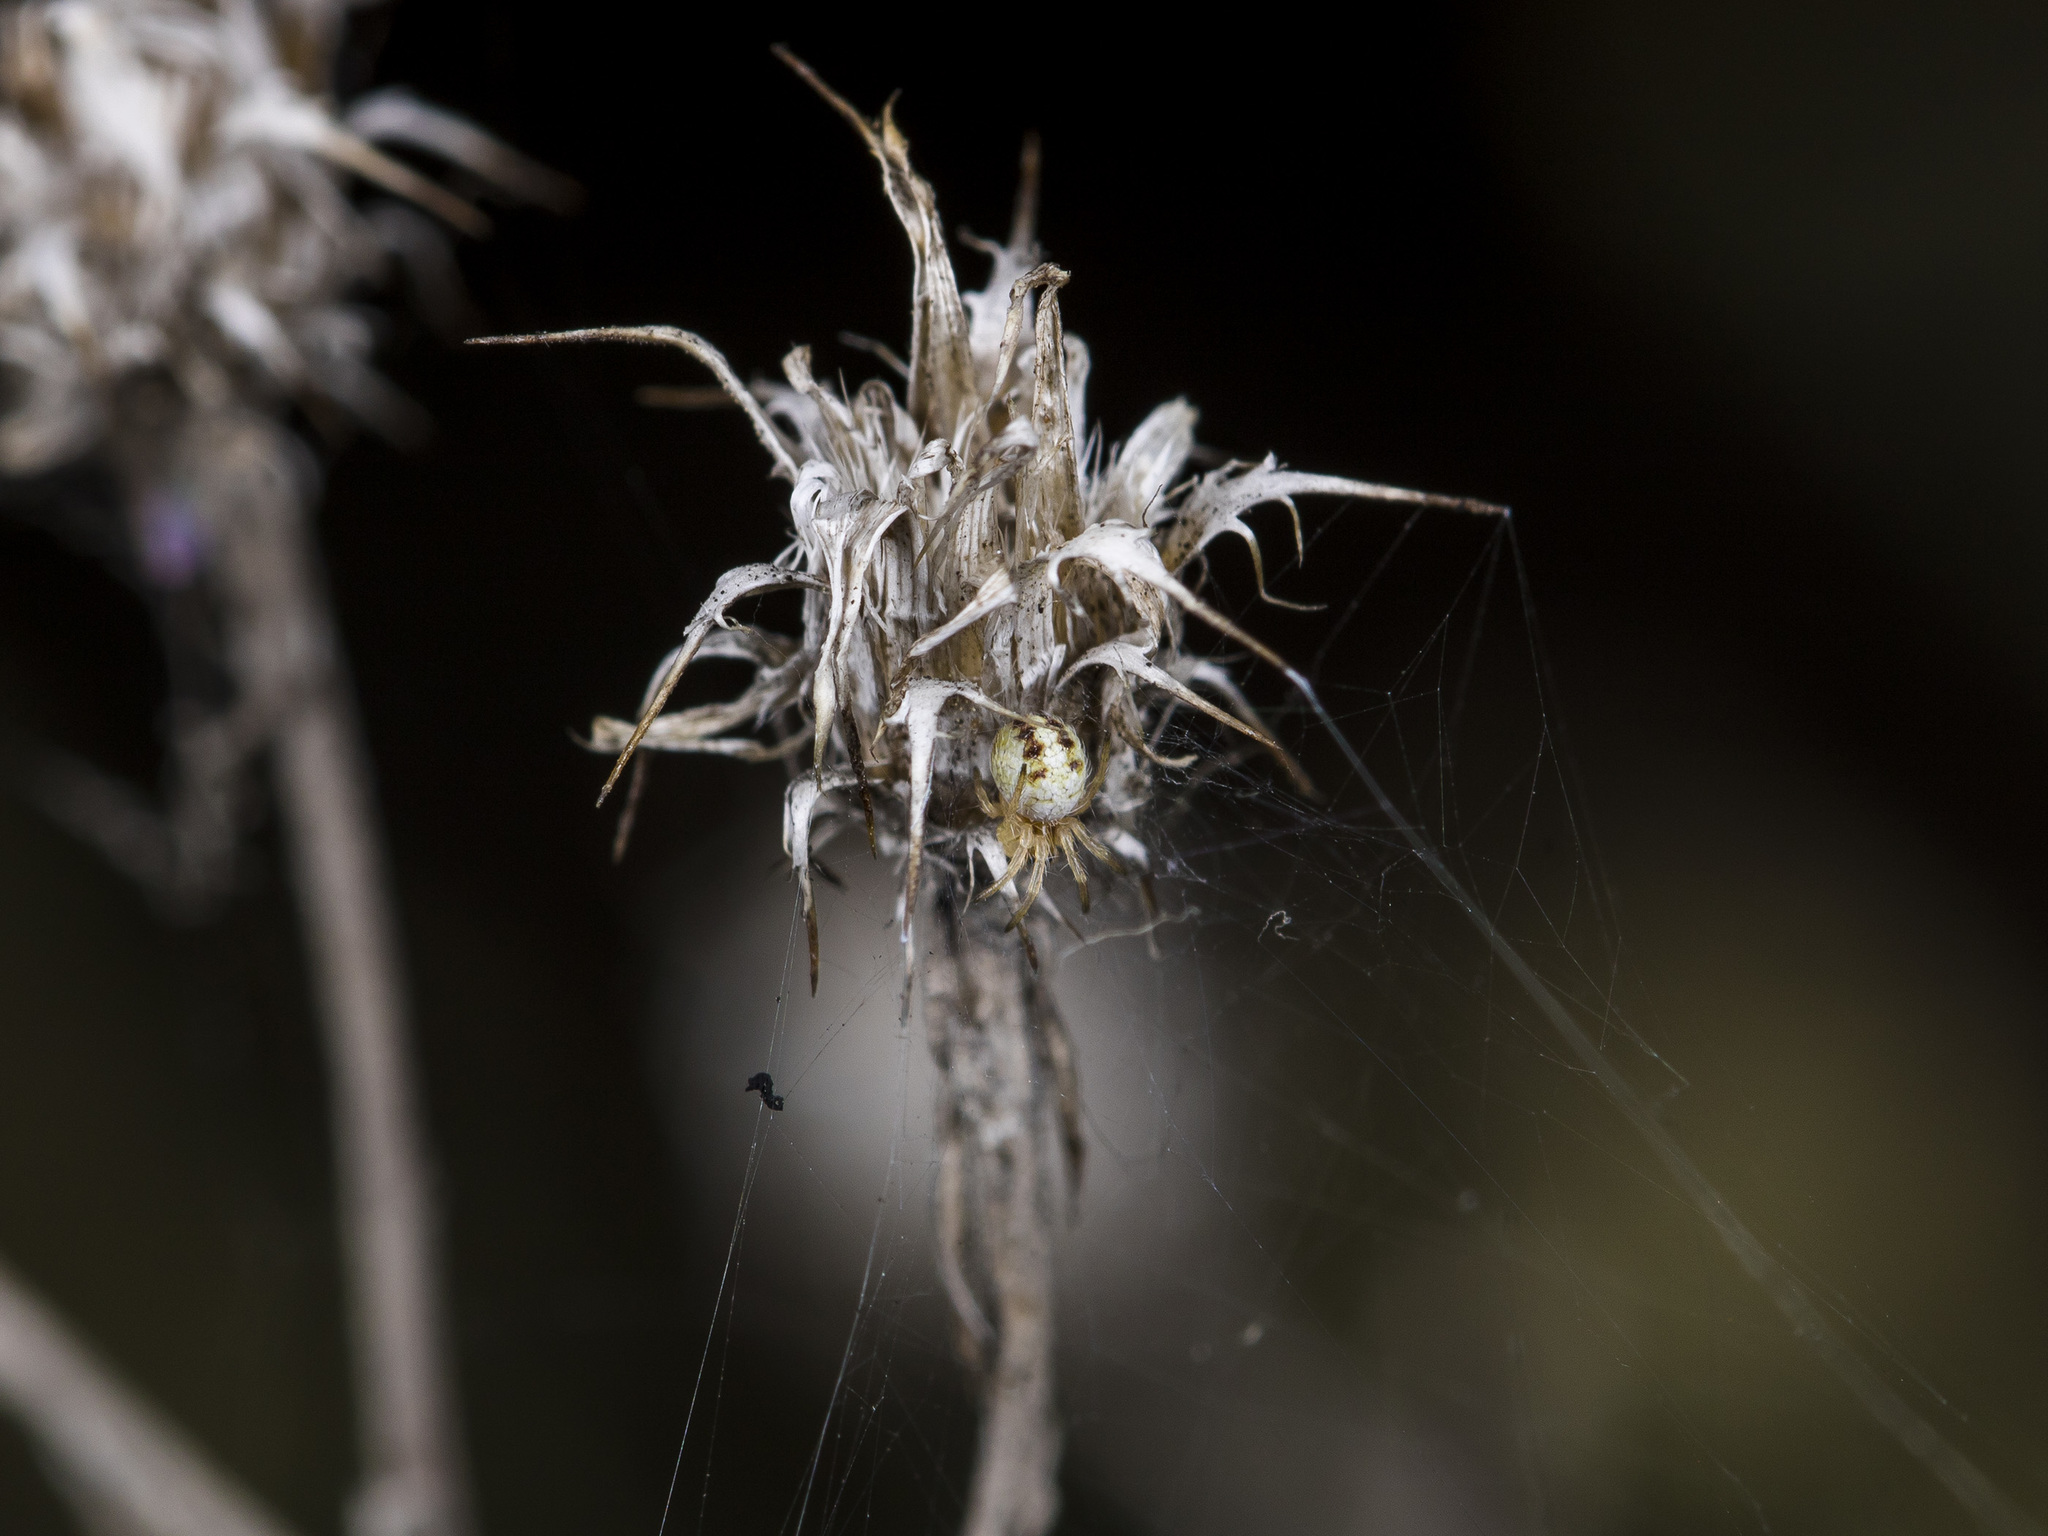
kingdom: Animalia
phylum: Arthropoda
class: Arachnida
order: Araneae
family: Araneidae
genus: Agalenatea
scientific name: Agalenatea redii
